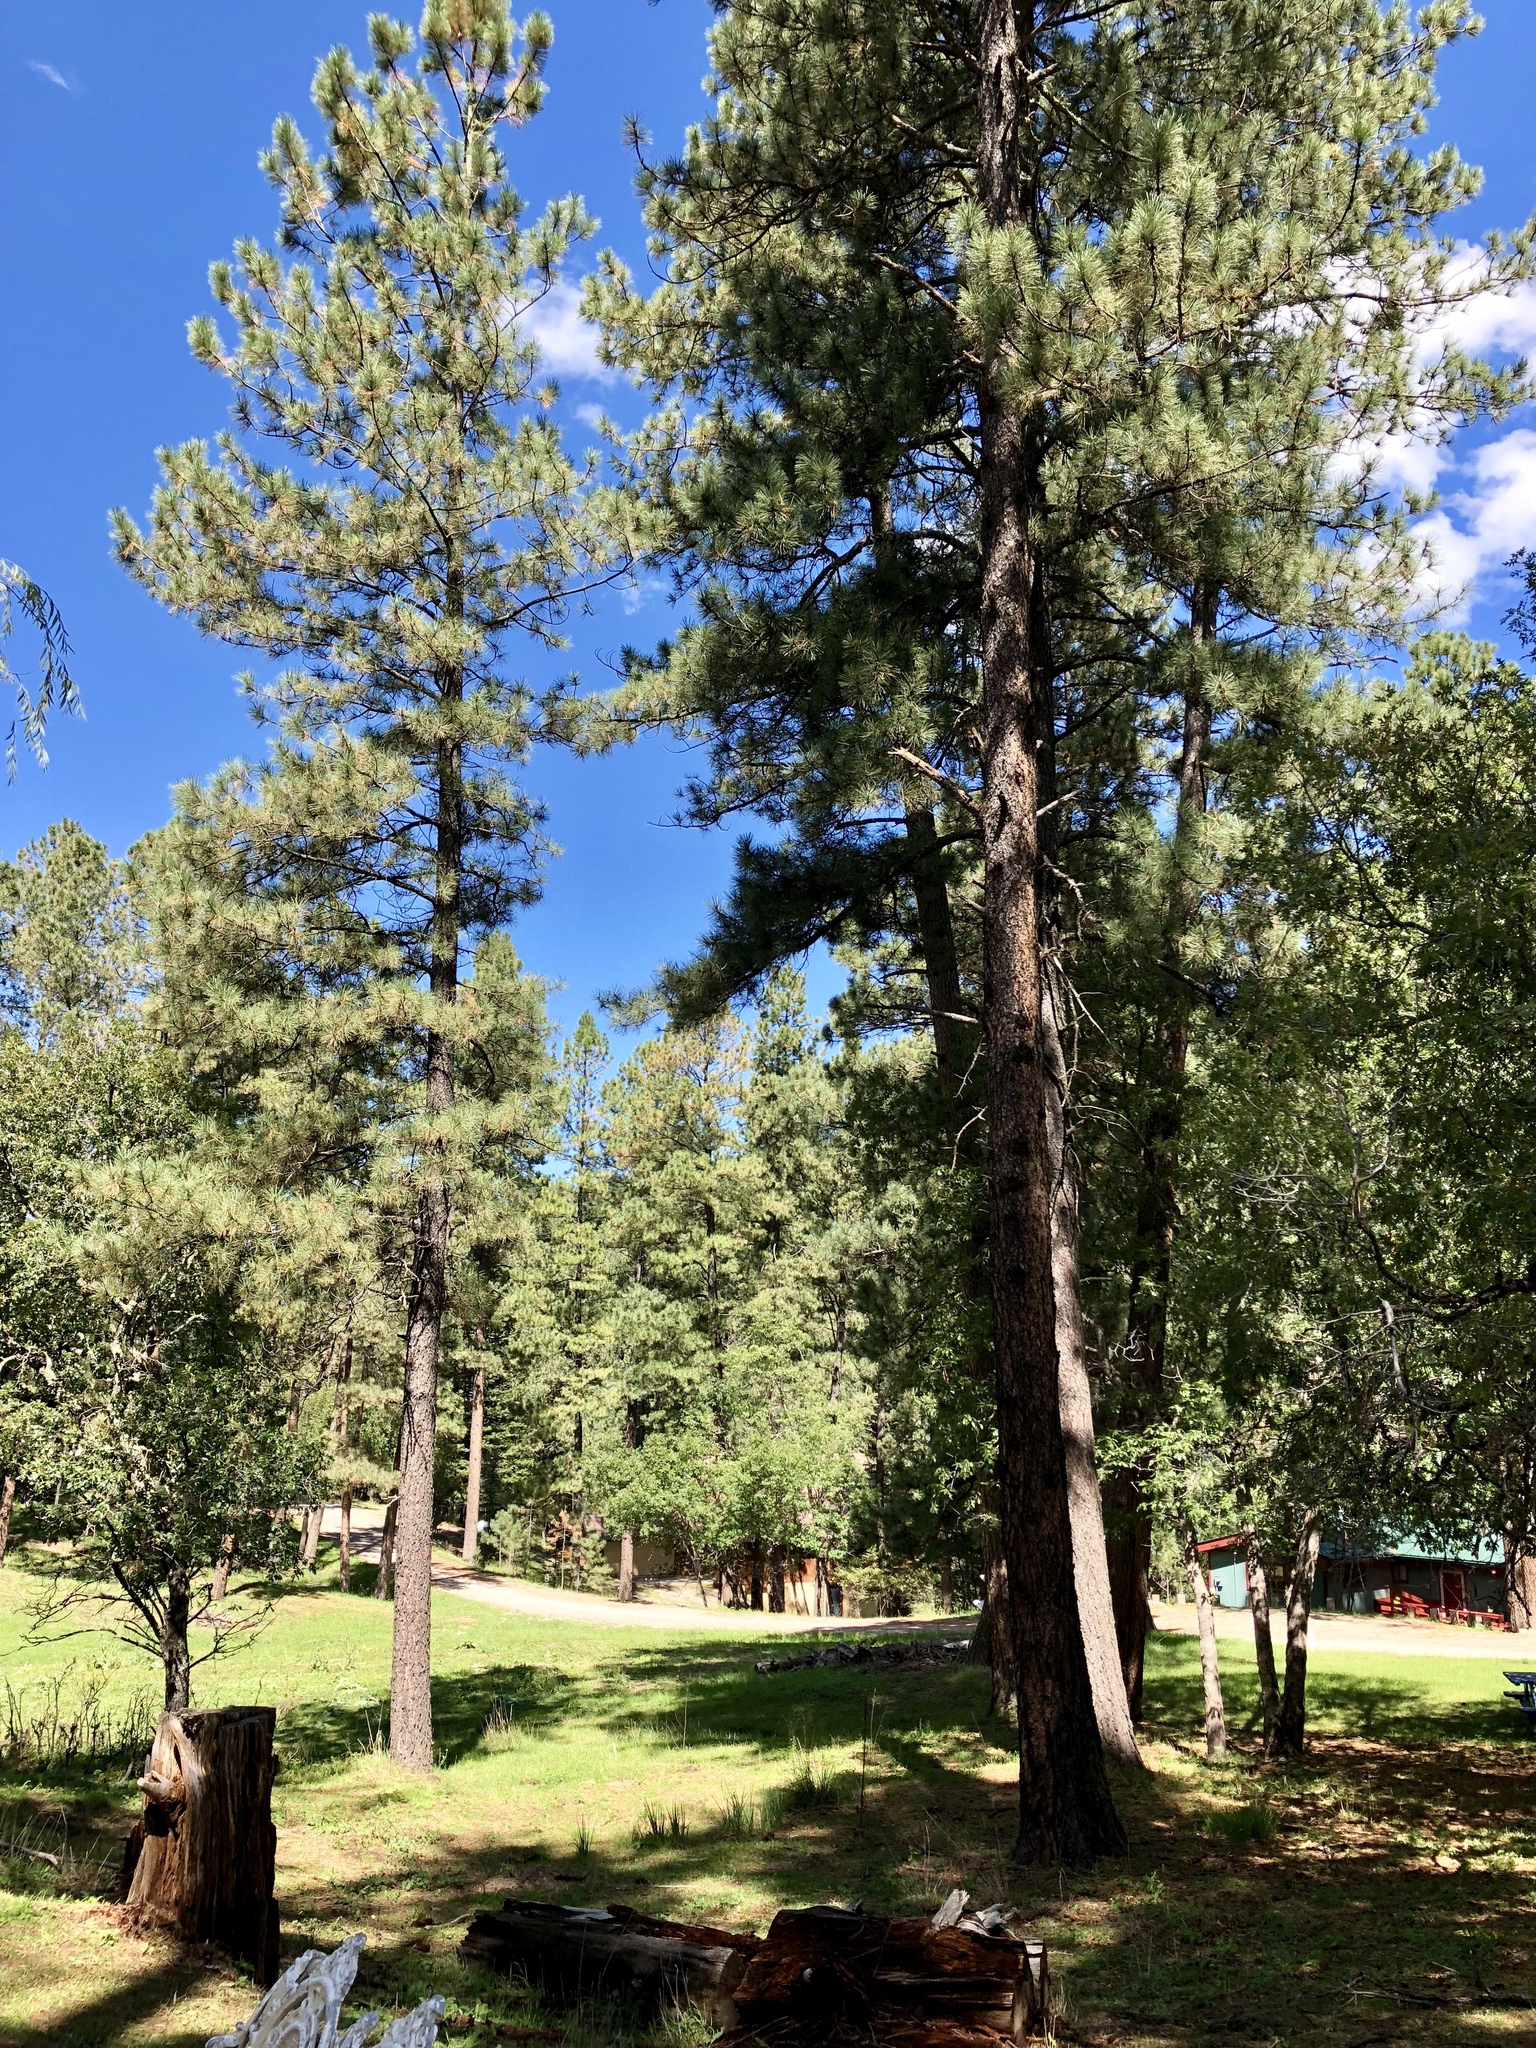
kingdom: Plantae
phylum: Tracheophyta
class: Pinopsida
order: Pinales
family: Pinaceae
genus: Pinus
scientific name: Pinus ponderosa
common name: Western yellow-pine
